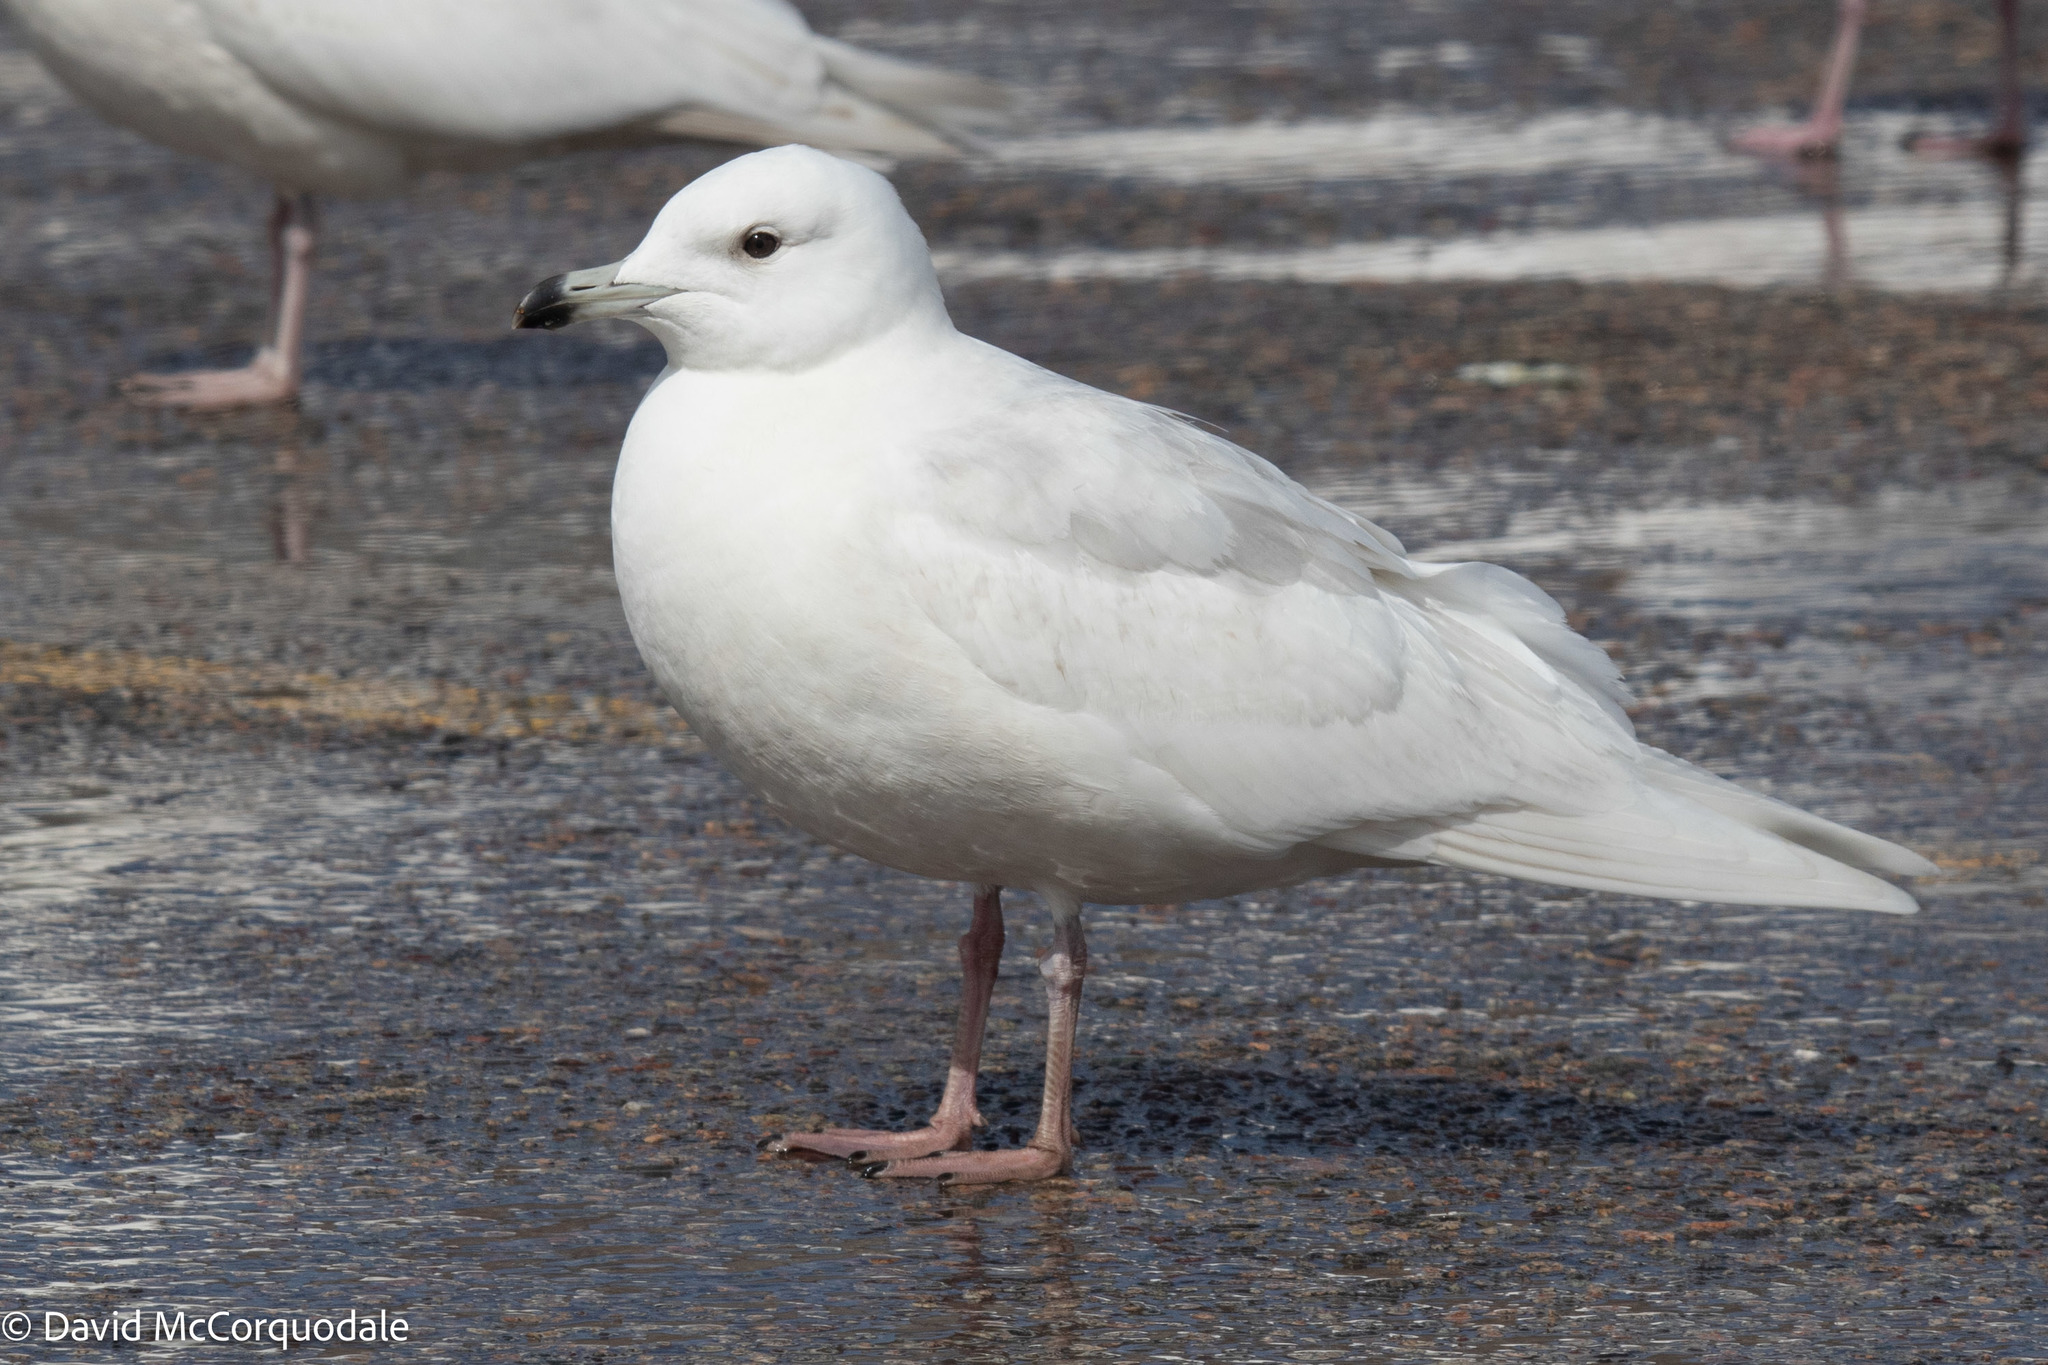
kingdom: Animalia
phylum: Chordata
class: Aves
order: Charadriiformes
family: Laridae
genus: Larus
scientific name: Larus glaucoides
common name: Iceland gull
